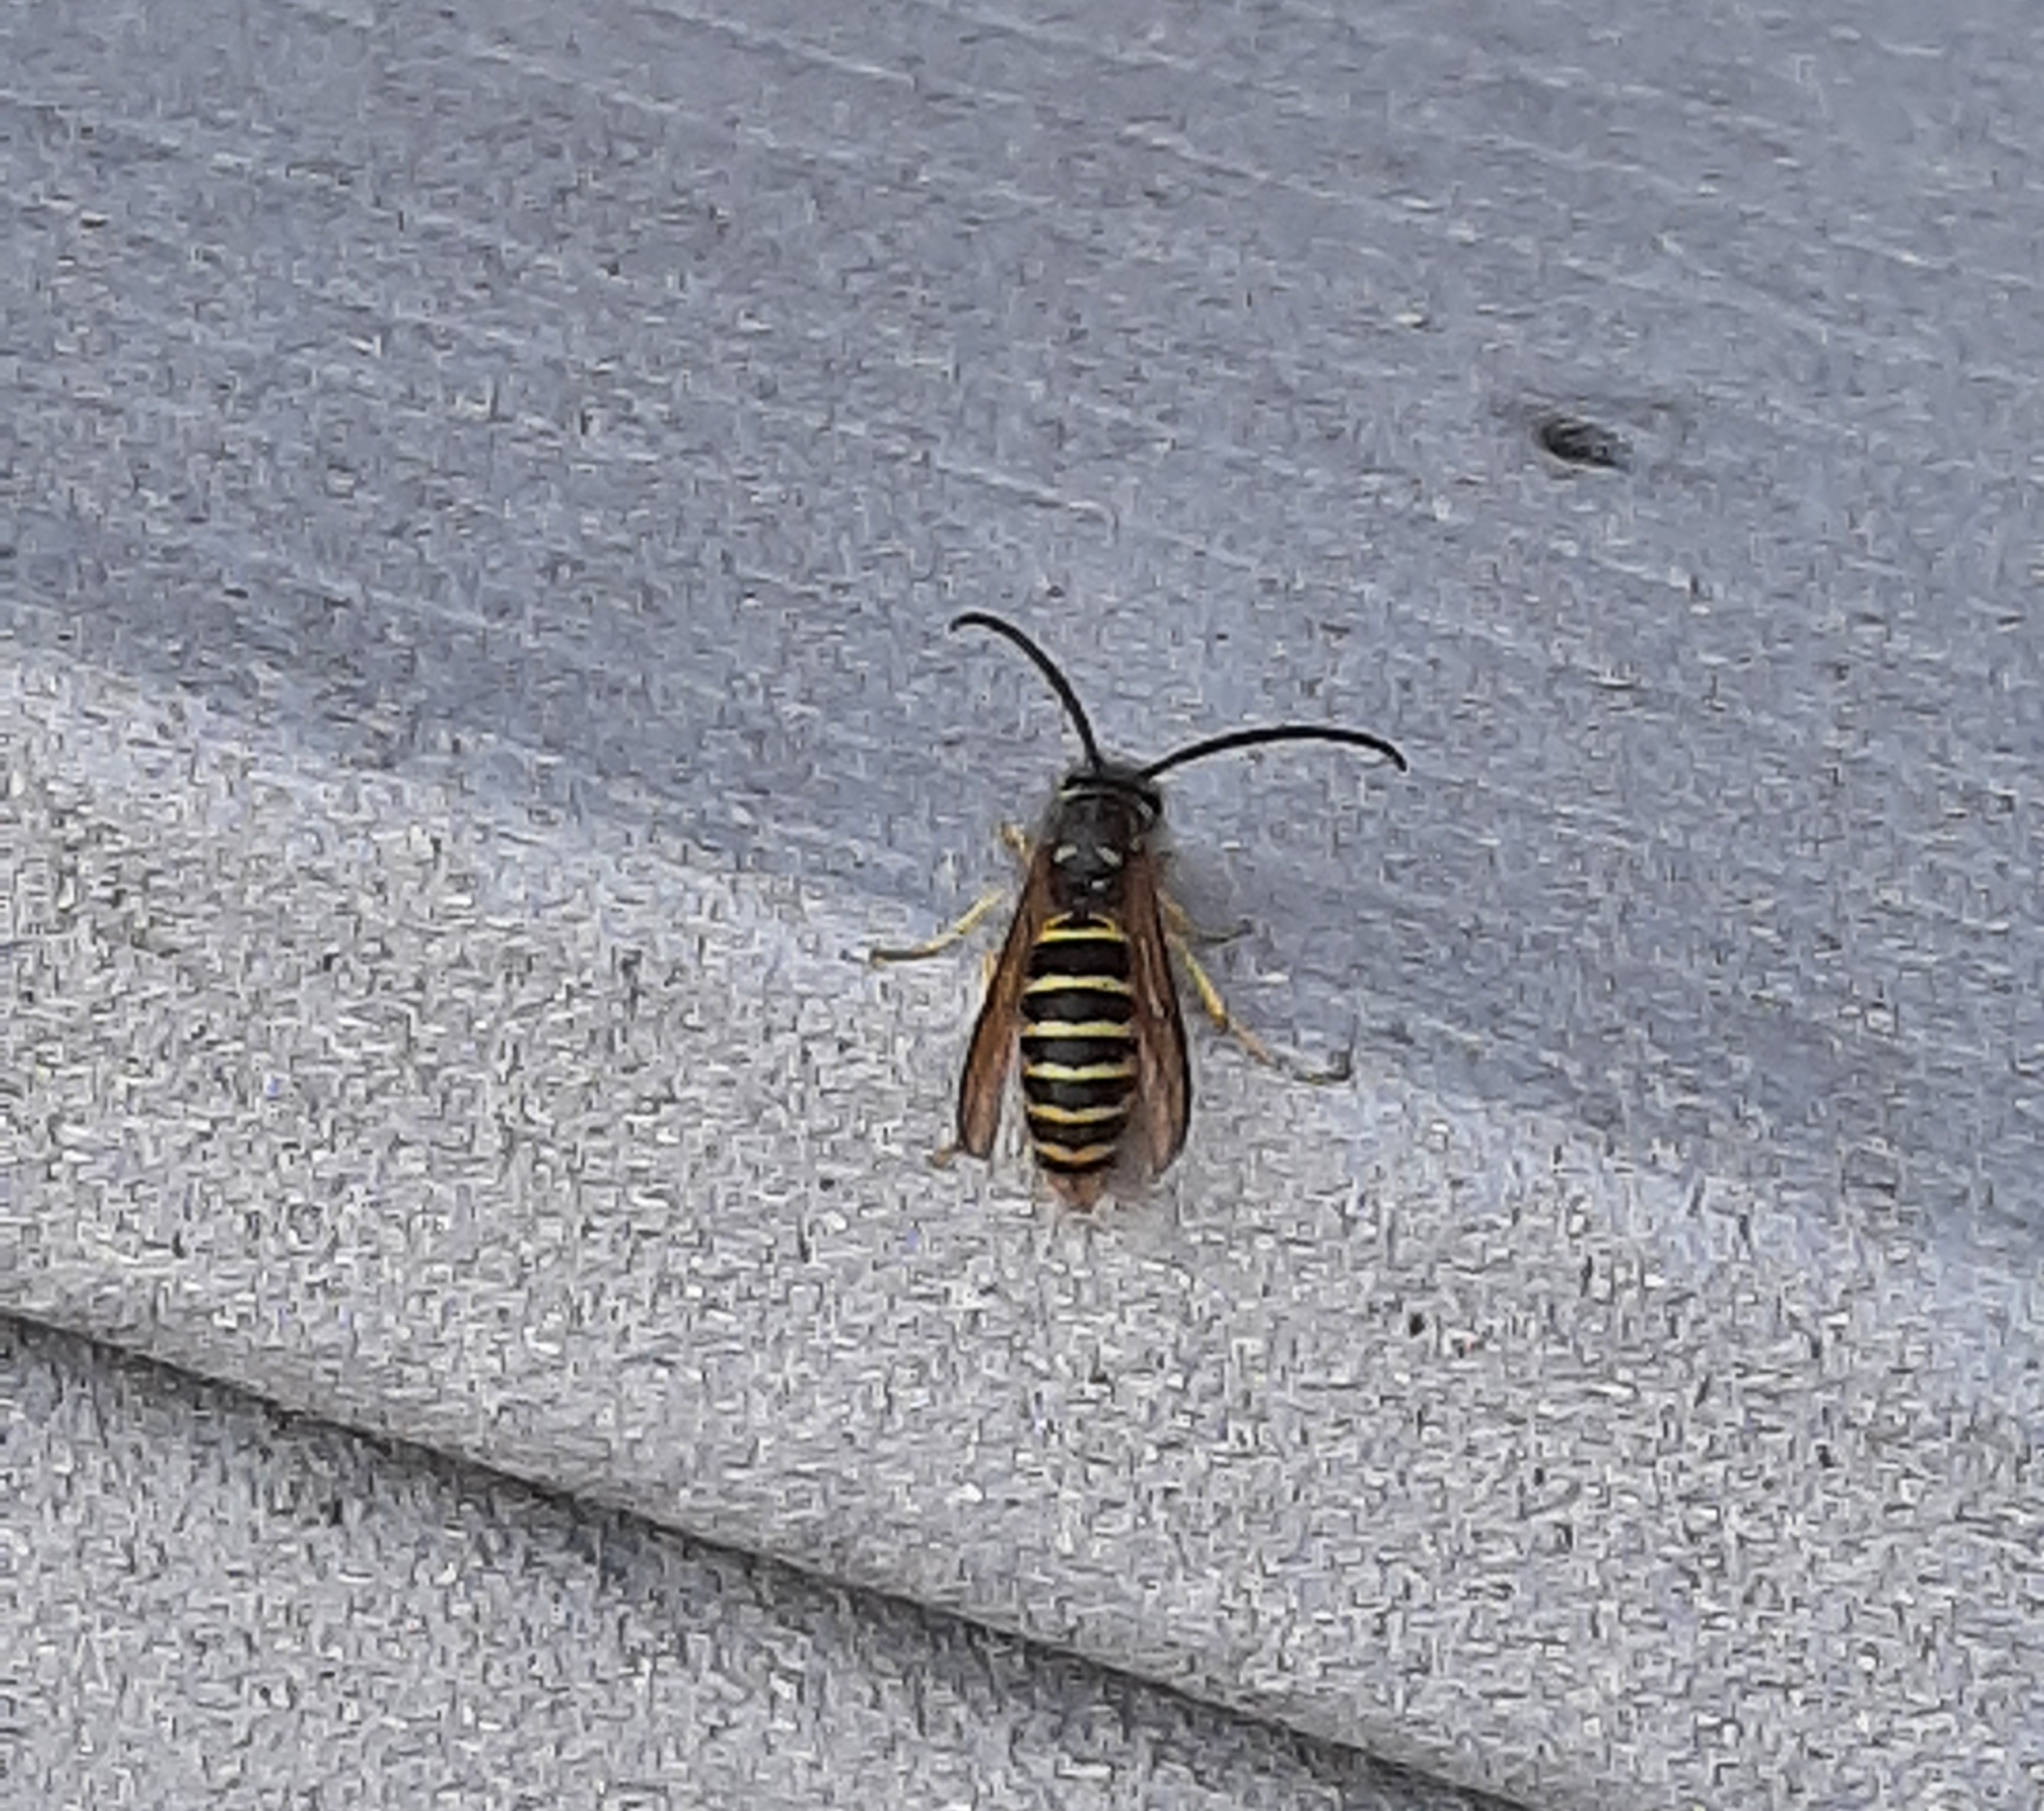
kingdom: Animalia
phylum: Arthropoda
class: Insecta
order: Hymenoptera
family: Vespidae
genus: Vespula
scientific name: Vespula maculifrons
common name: Eastern yellowjacket
